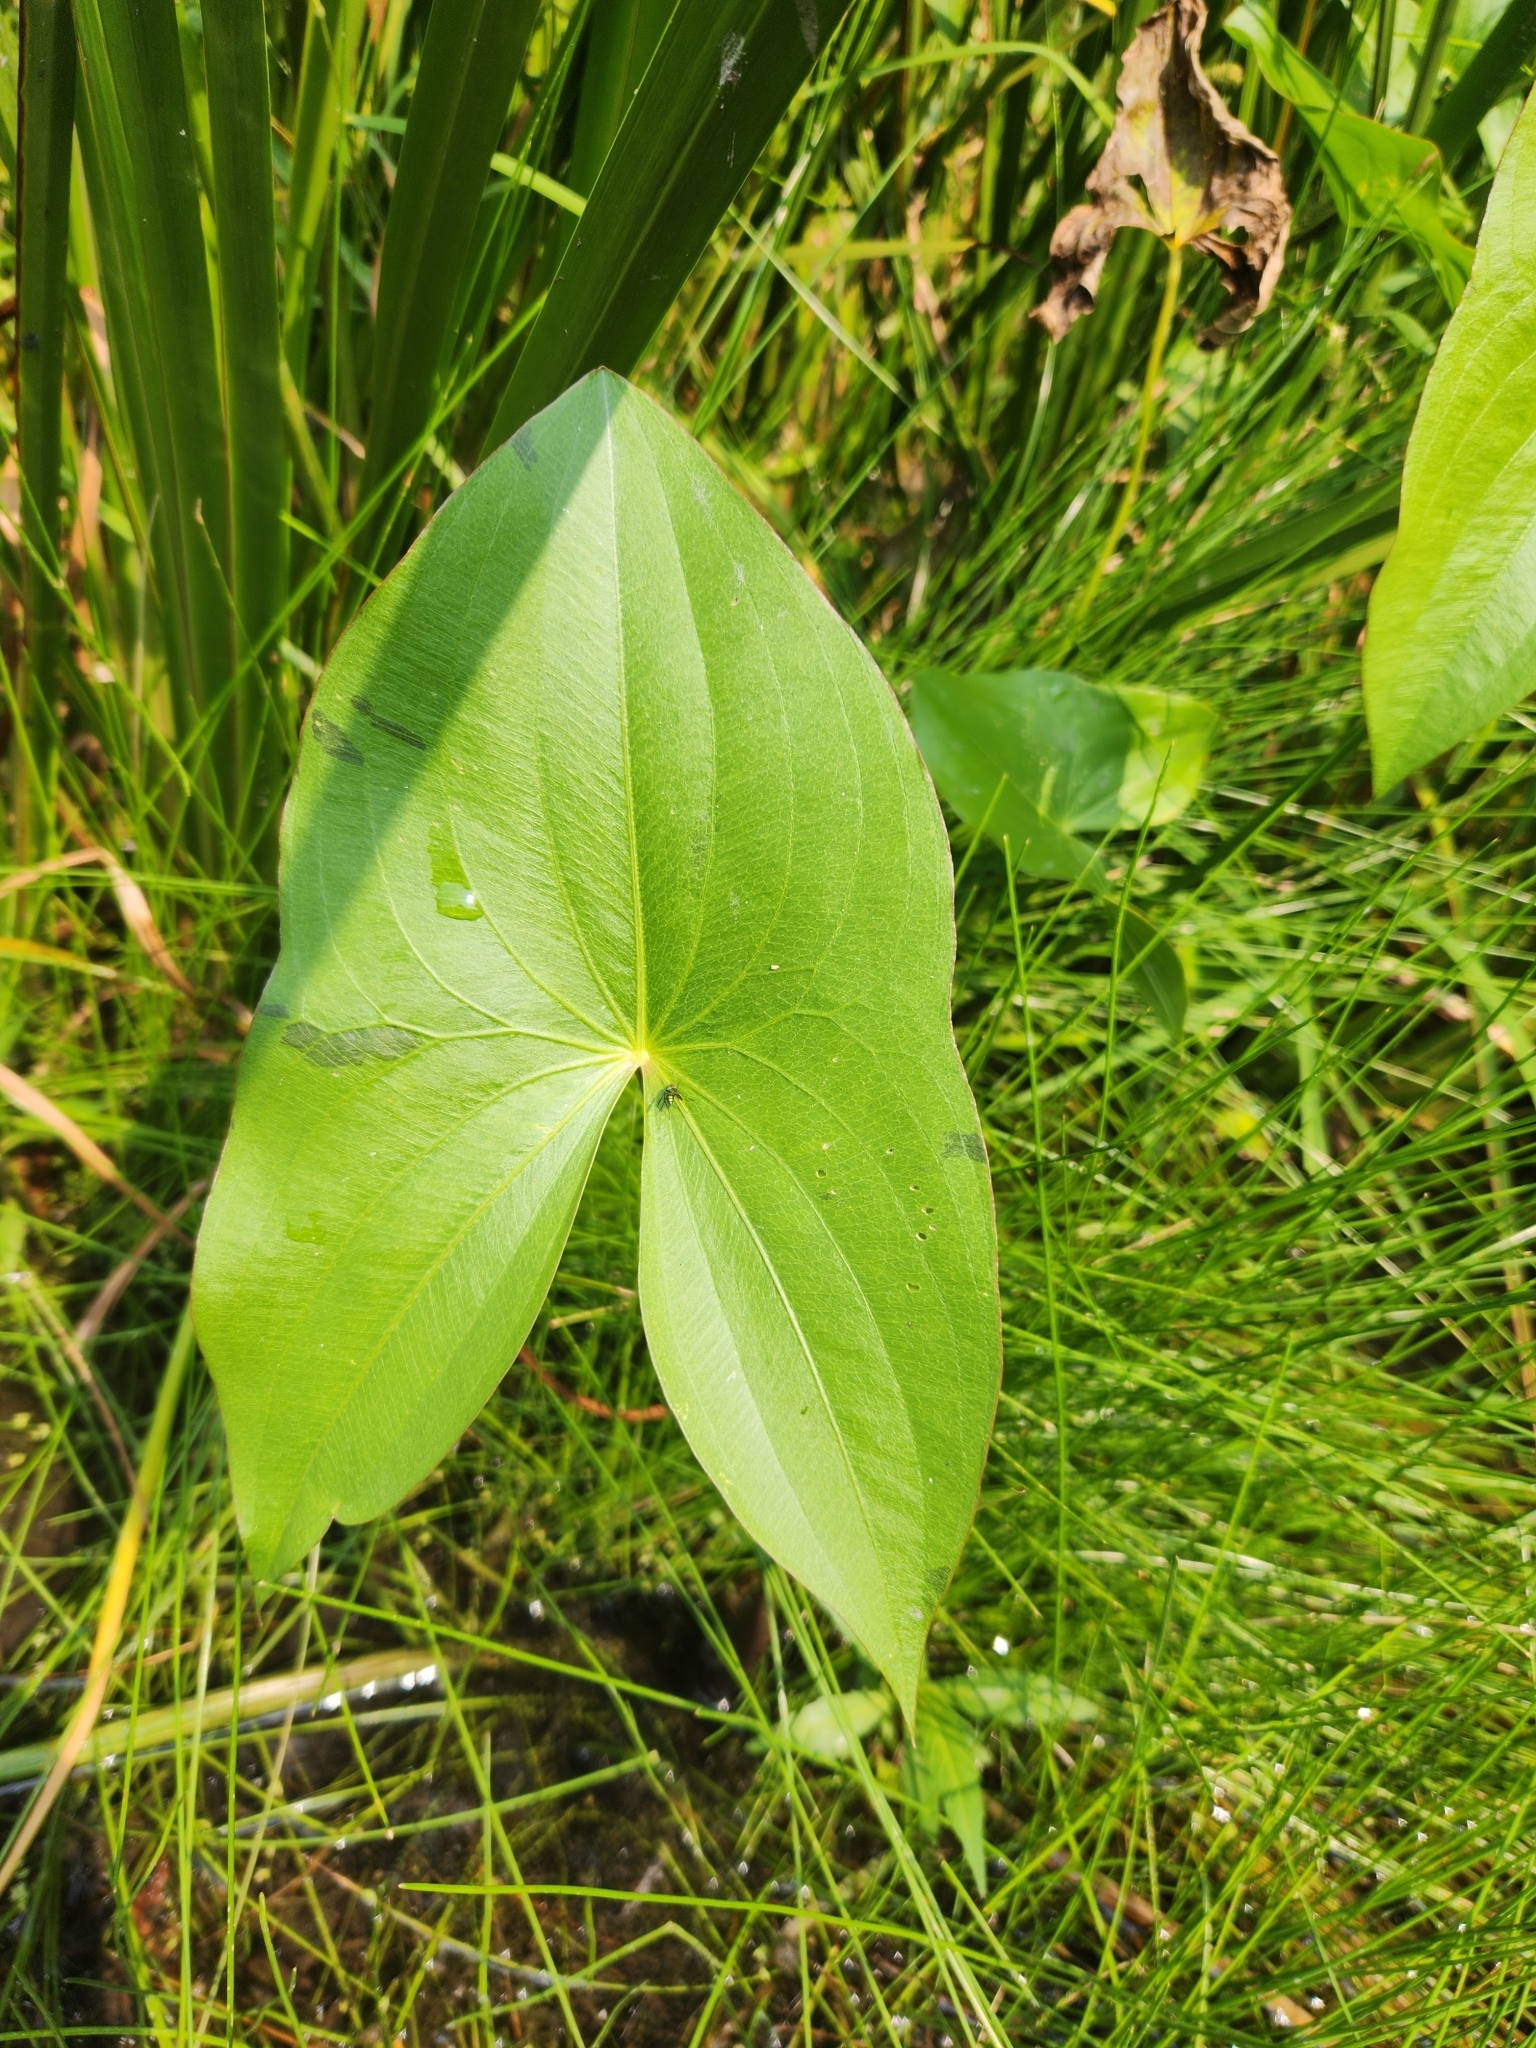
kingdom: Plantae
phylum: Tracheophyta
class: Liliopsida
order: Alismatales
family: Alismataceae
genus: Sagittaria
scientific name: Sagittaria
